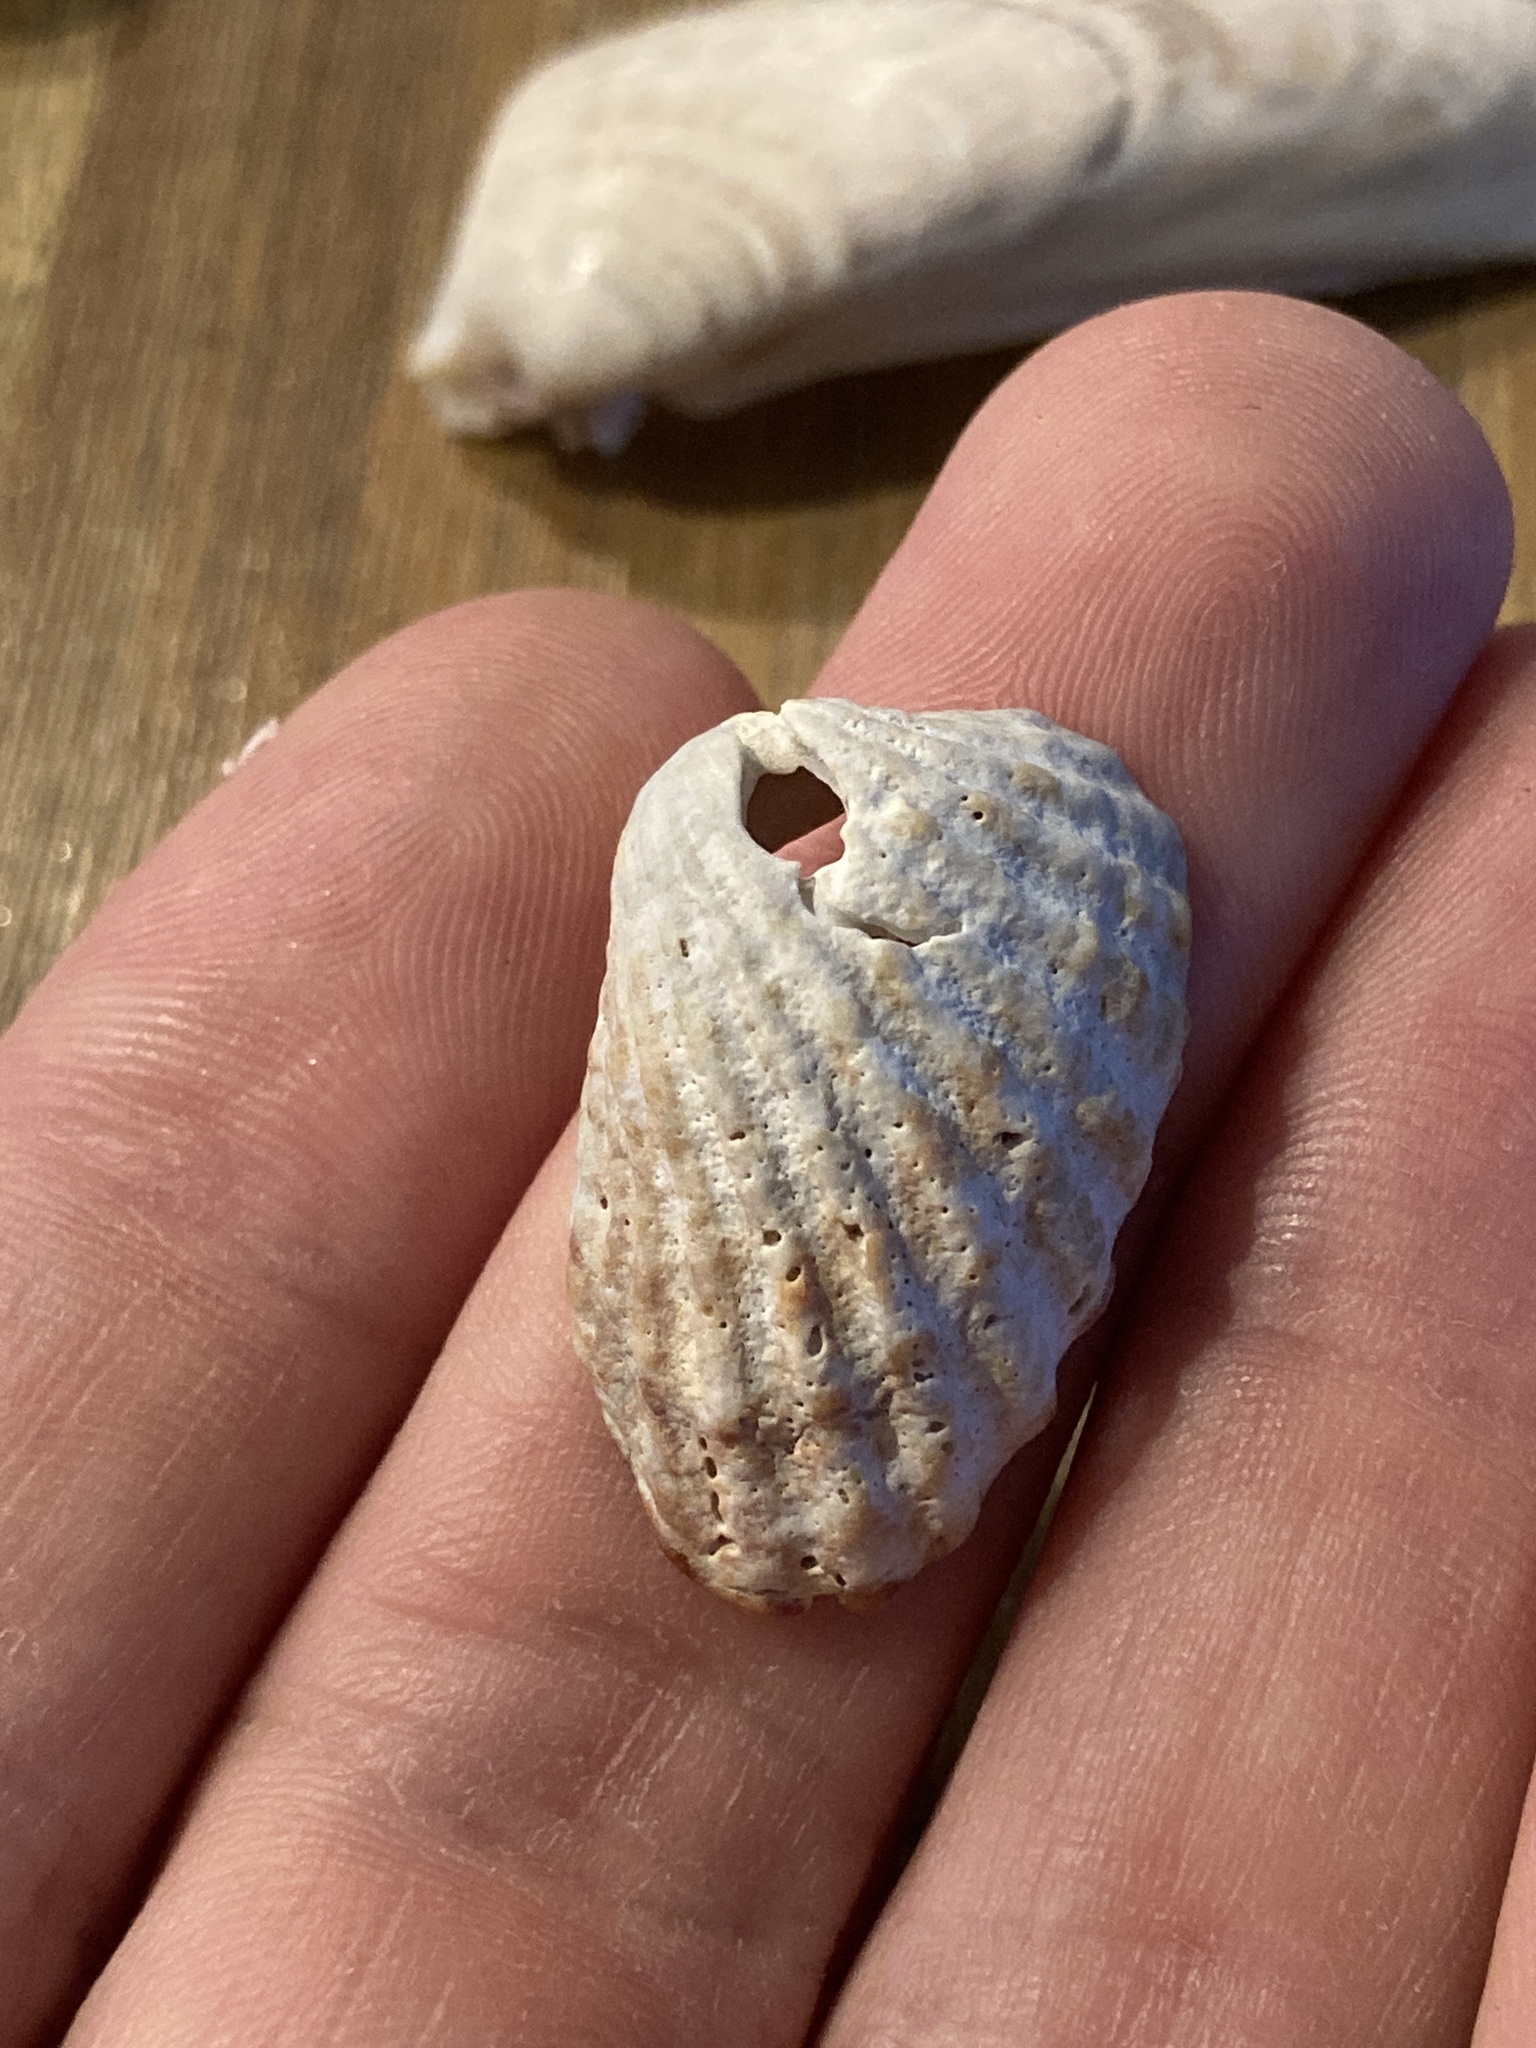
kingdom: Animalia
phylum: Mollusca
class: Bivalvia
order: Carditida
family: Carditidae
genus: Cardites
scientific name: Cardites floridanus
